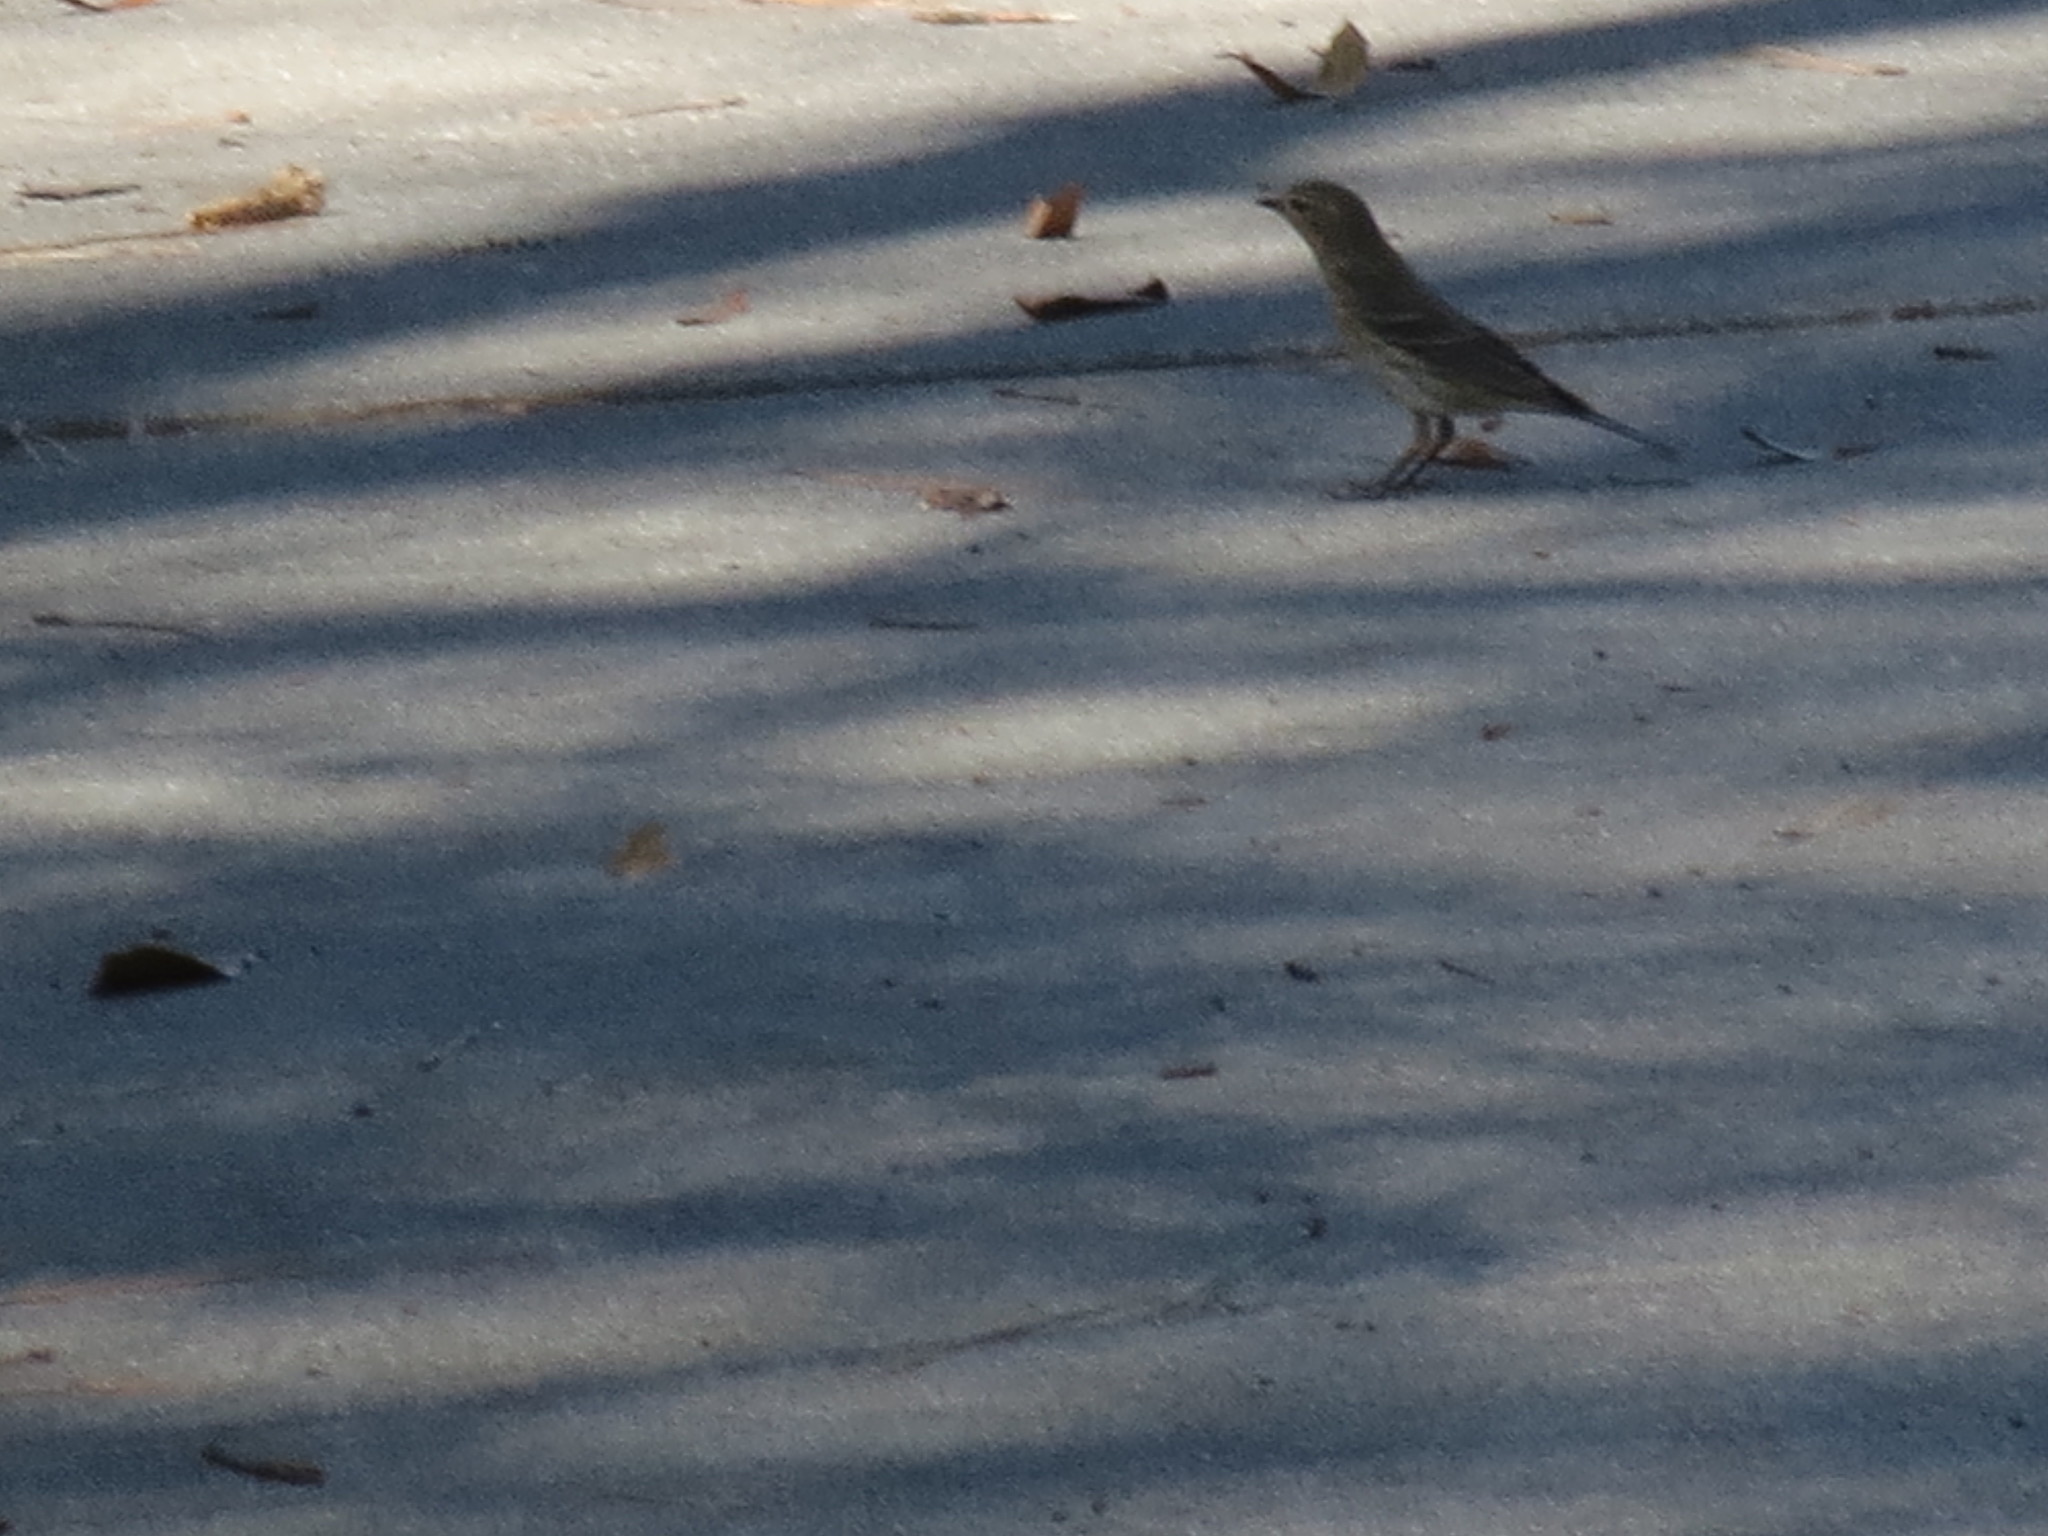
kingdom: Animalia
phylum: Chordata
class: Aves
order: Passeriformes
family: Parulidae
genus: Setophaga
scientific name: Setophaga coronata
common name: Myrtle warbler
